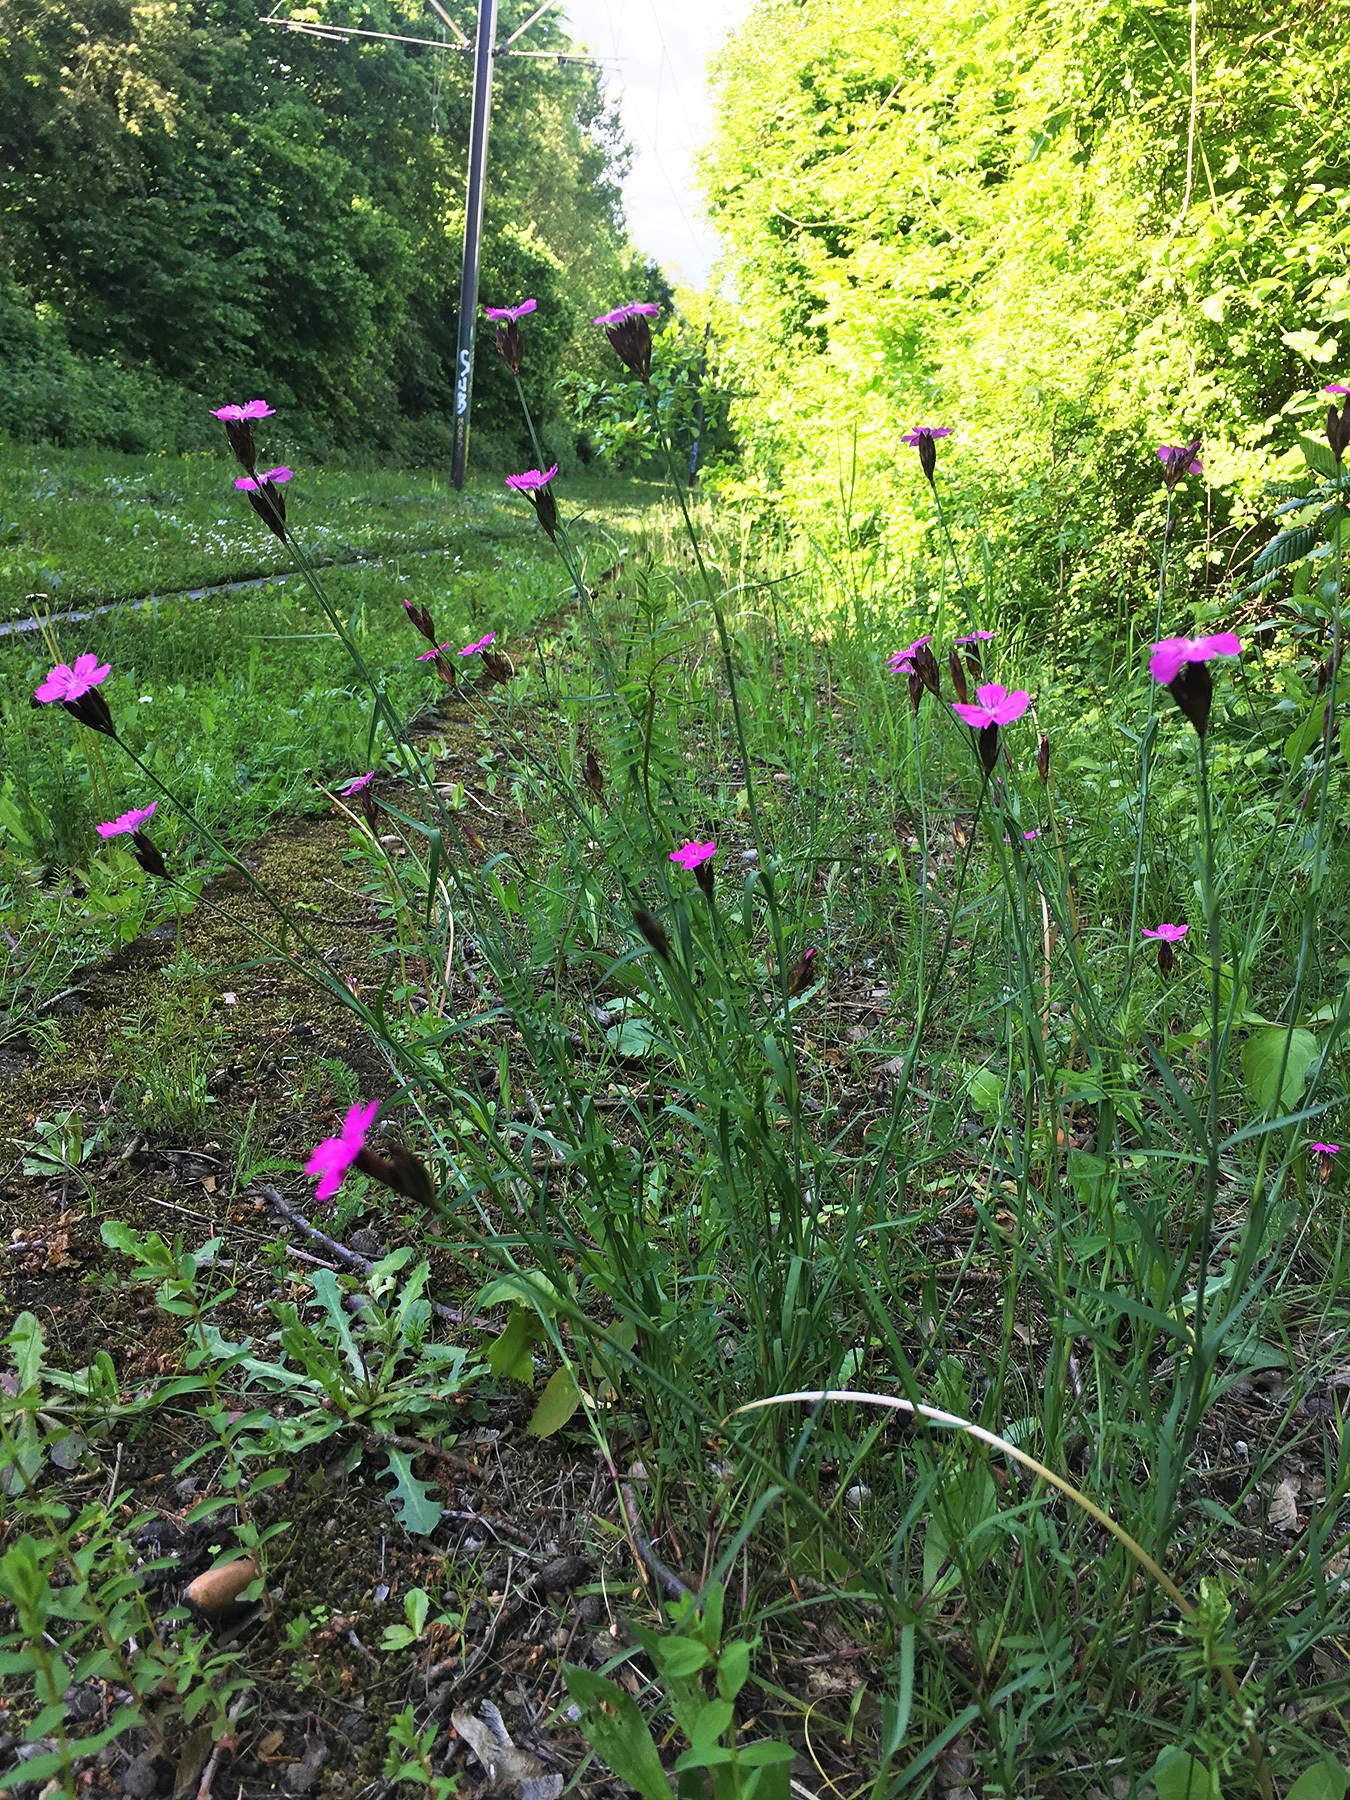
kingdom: Plantae
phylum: Tracheophyta
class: Magnoliopsida
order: Caryophyllales
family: Caryophyllaceae
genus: Dianthus
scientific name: Dianthus carthusianorum
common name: Carthusian pink
